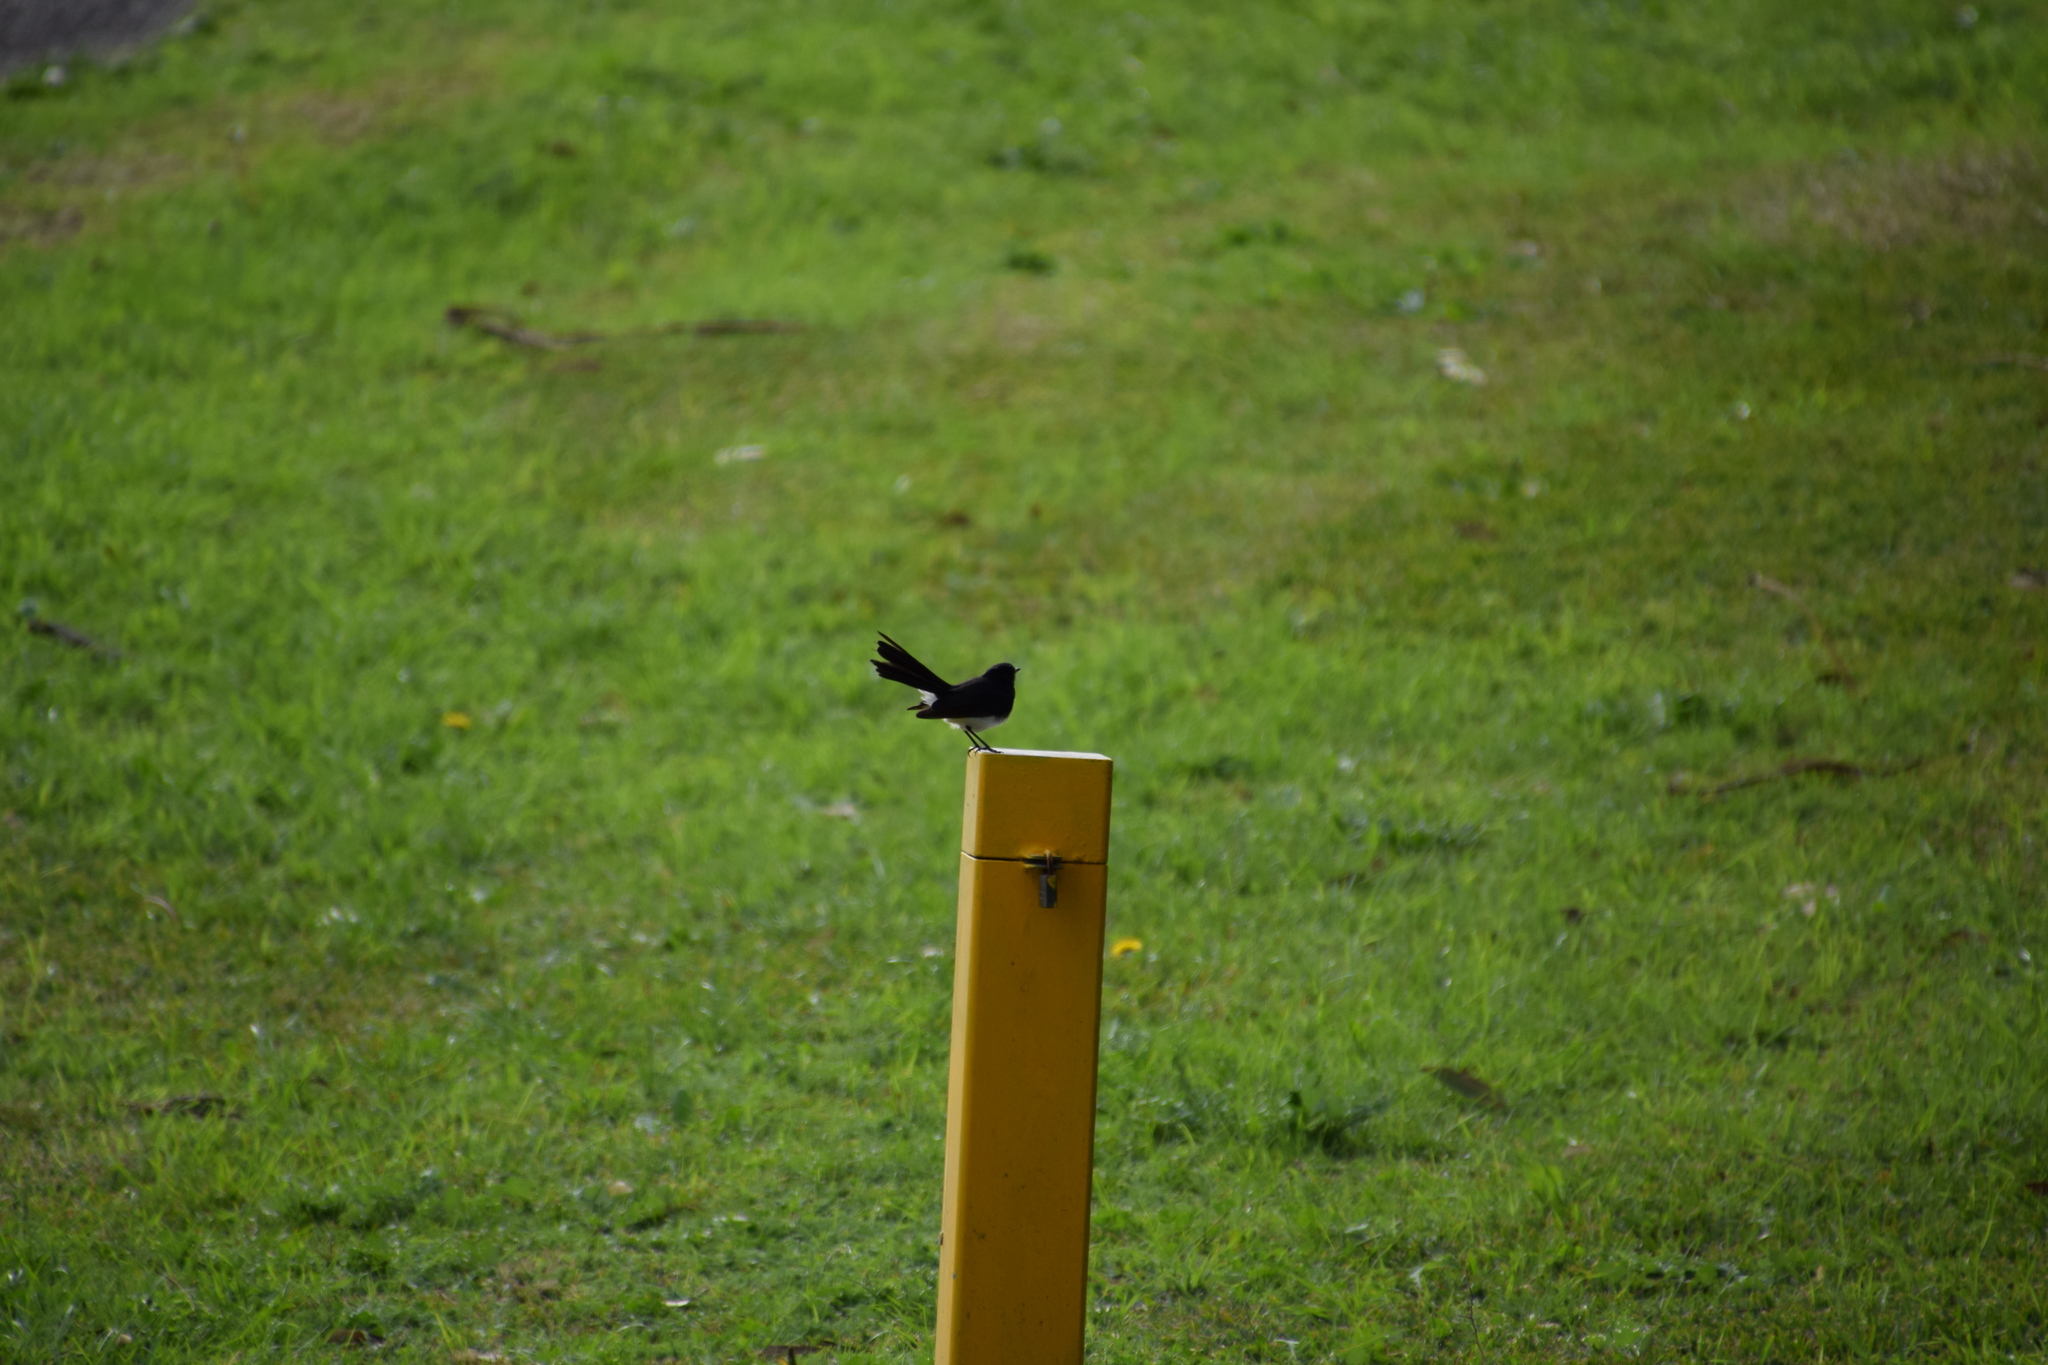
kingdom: Animalia
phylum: Chordata
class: Aves
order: Passeriformes
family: Rhipiduridae
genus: Rhipidura
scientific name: Rhipidura leucophrys
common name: Willie wagtail
